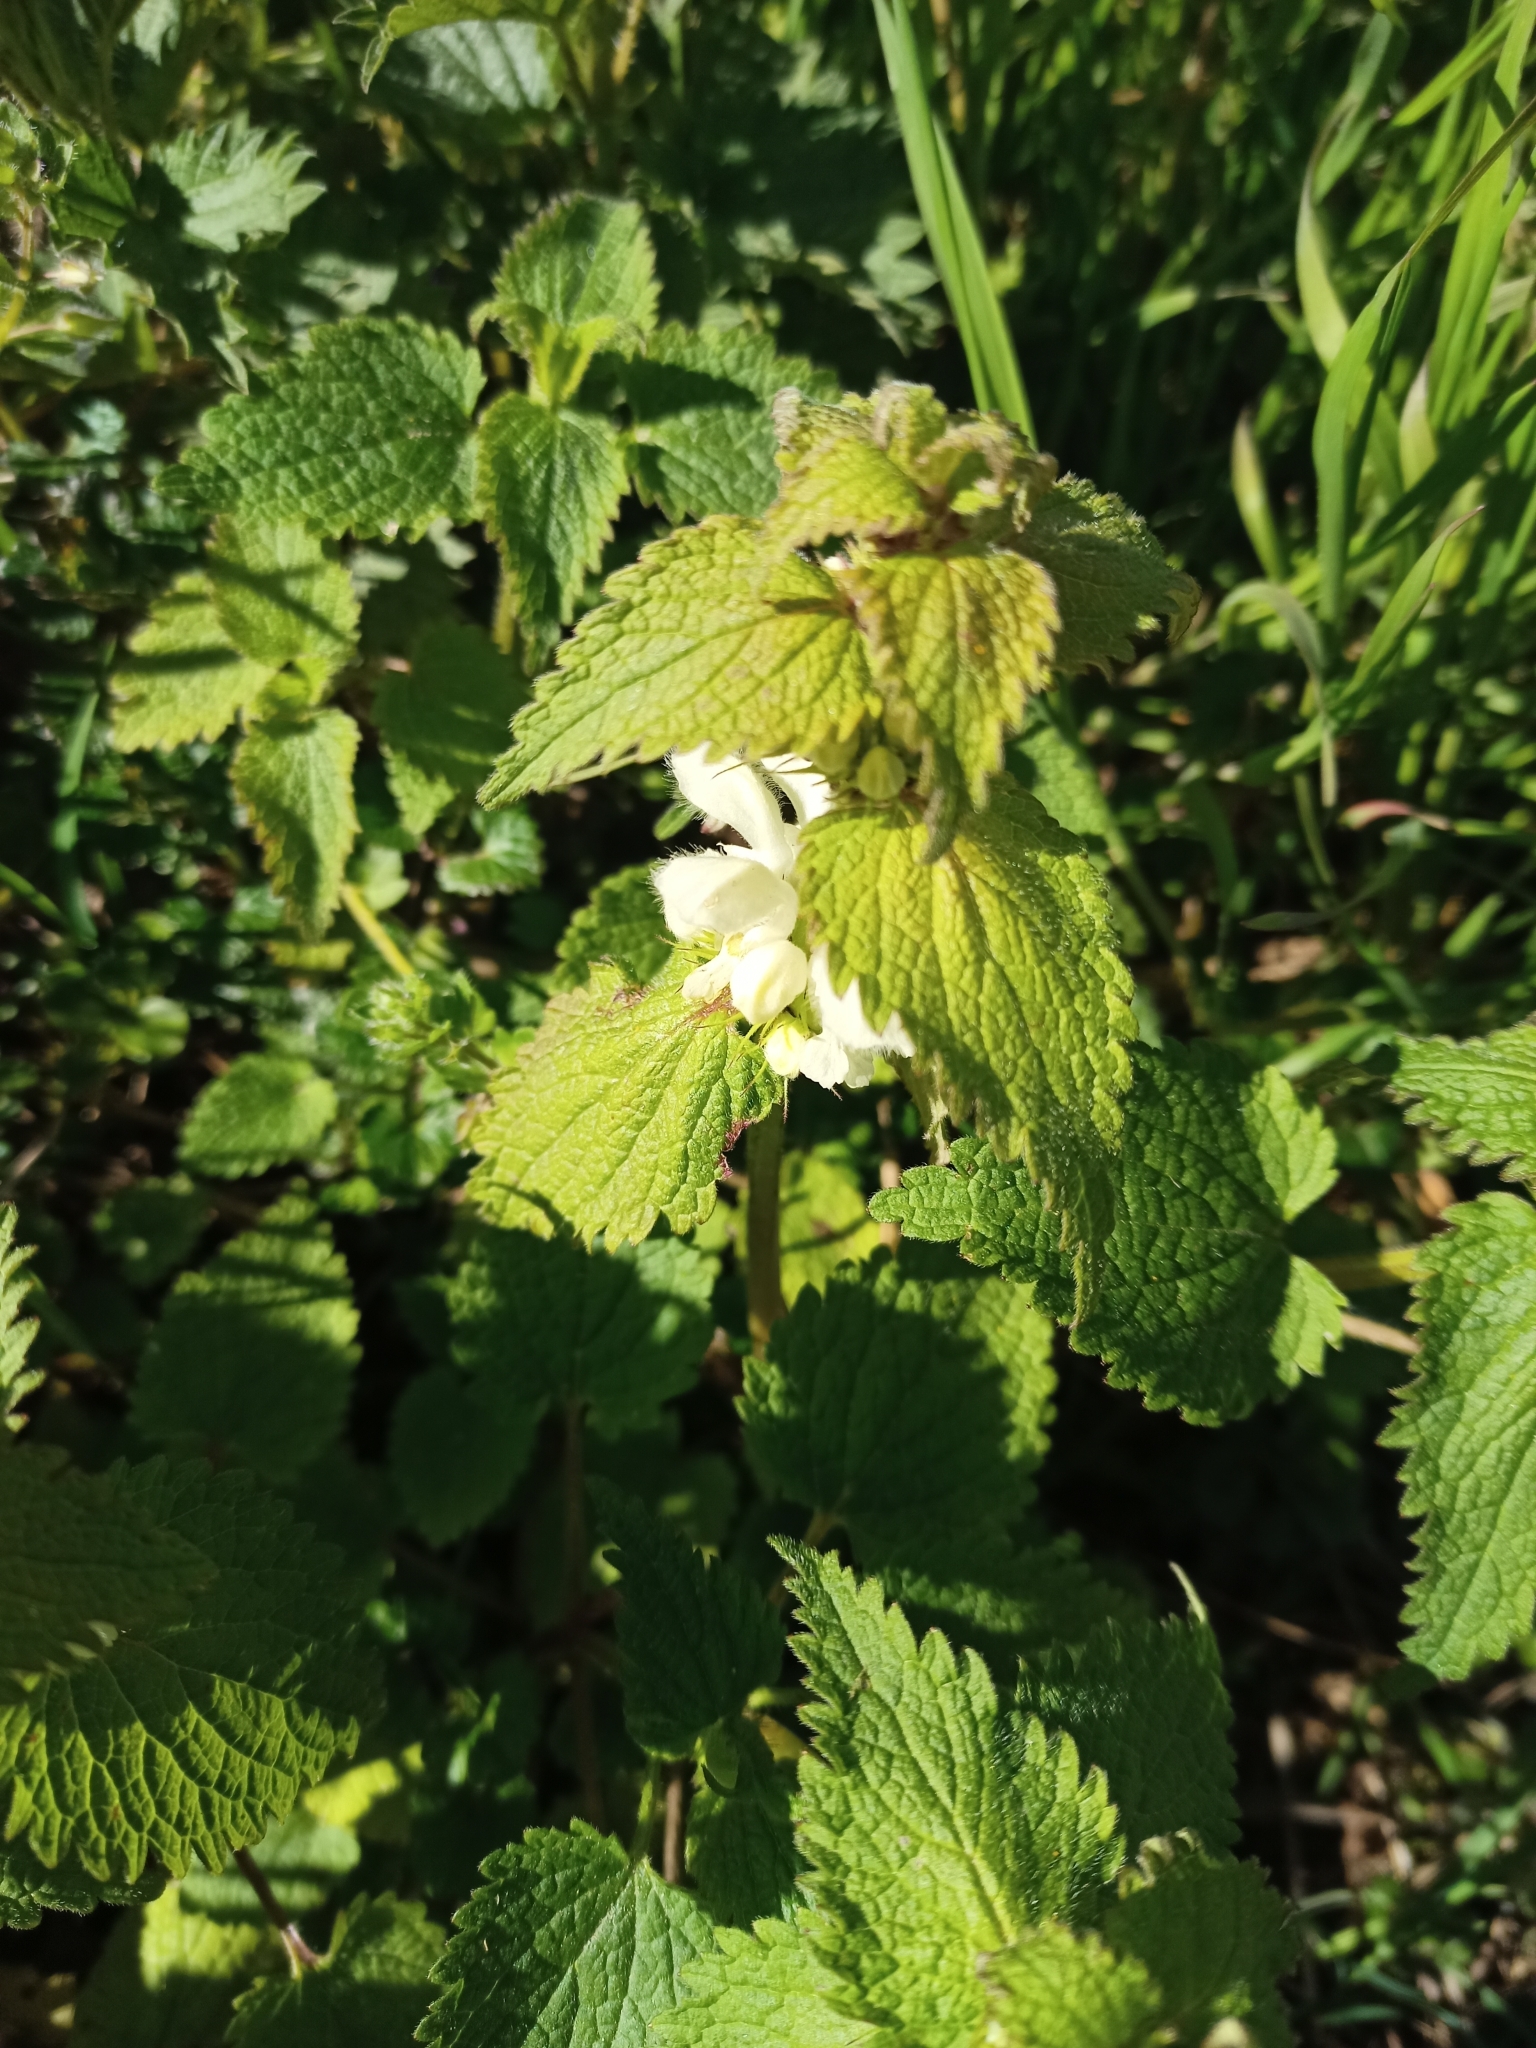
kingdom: Plantae
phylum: Tracheophyta
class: Magnoliopsida
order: Lamiales
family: Lamiaceae
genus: Lamium
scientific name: Lamium album
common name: White dead-nettle
